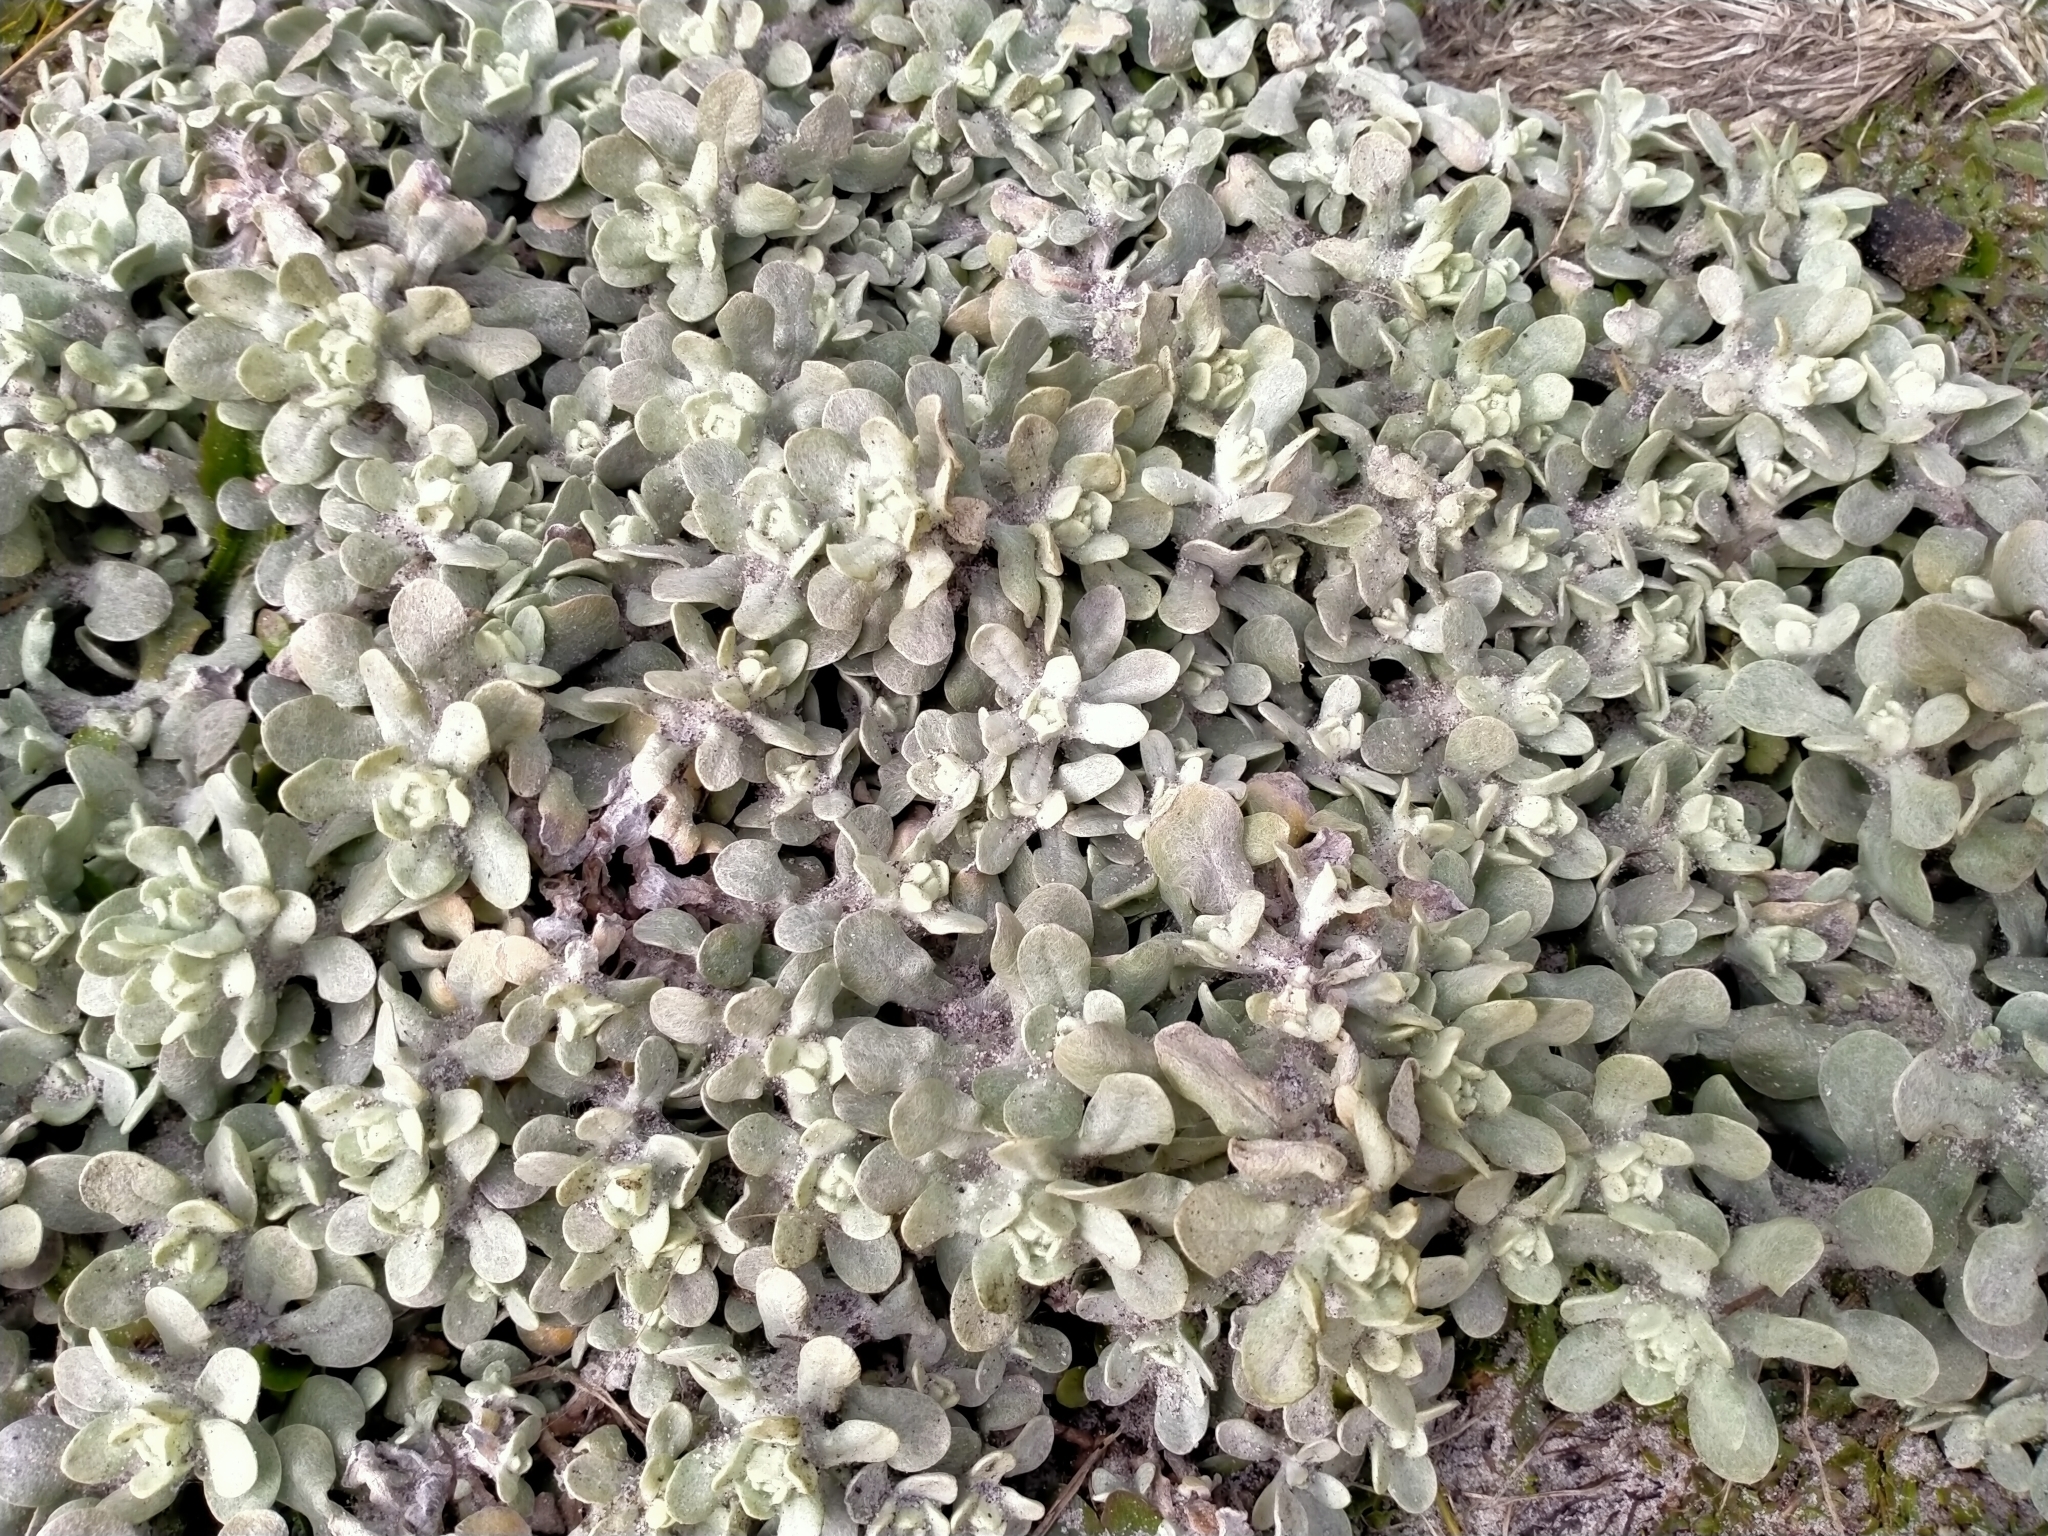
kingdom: Plantae
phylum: Tracheophyta
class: Magnoliopsida
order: Asterales
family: Asteraceae
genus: Pseudognaphalium
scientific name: Pseudognaphalium
